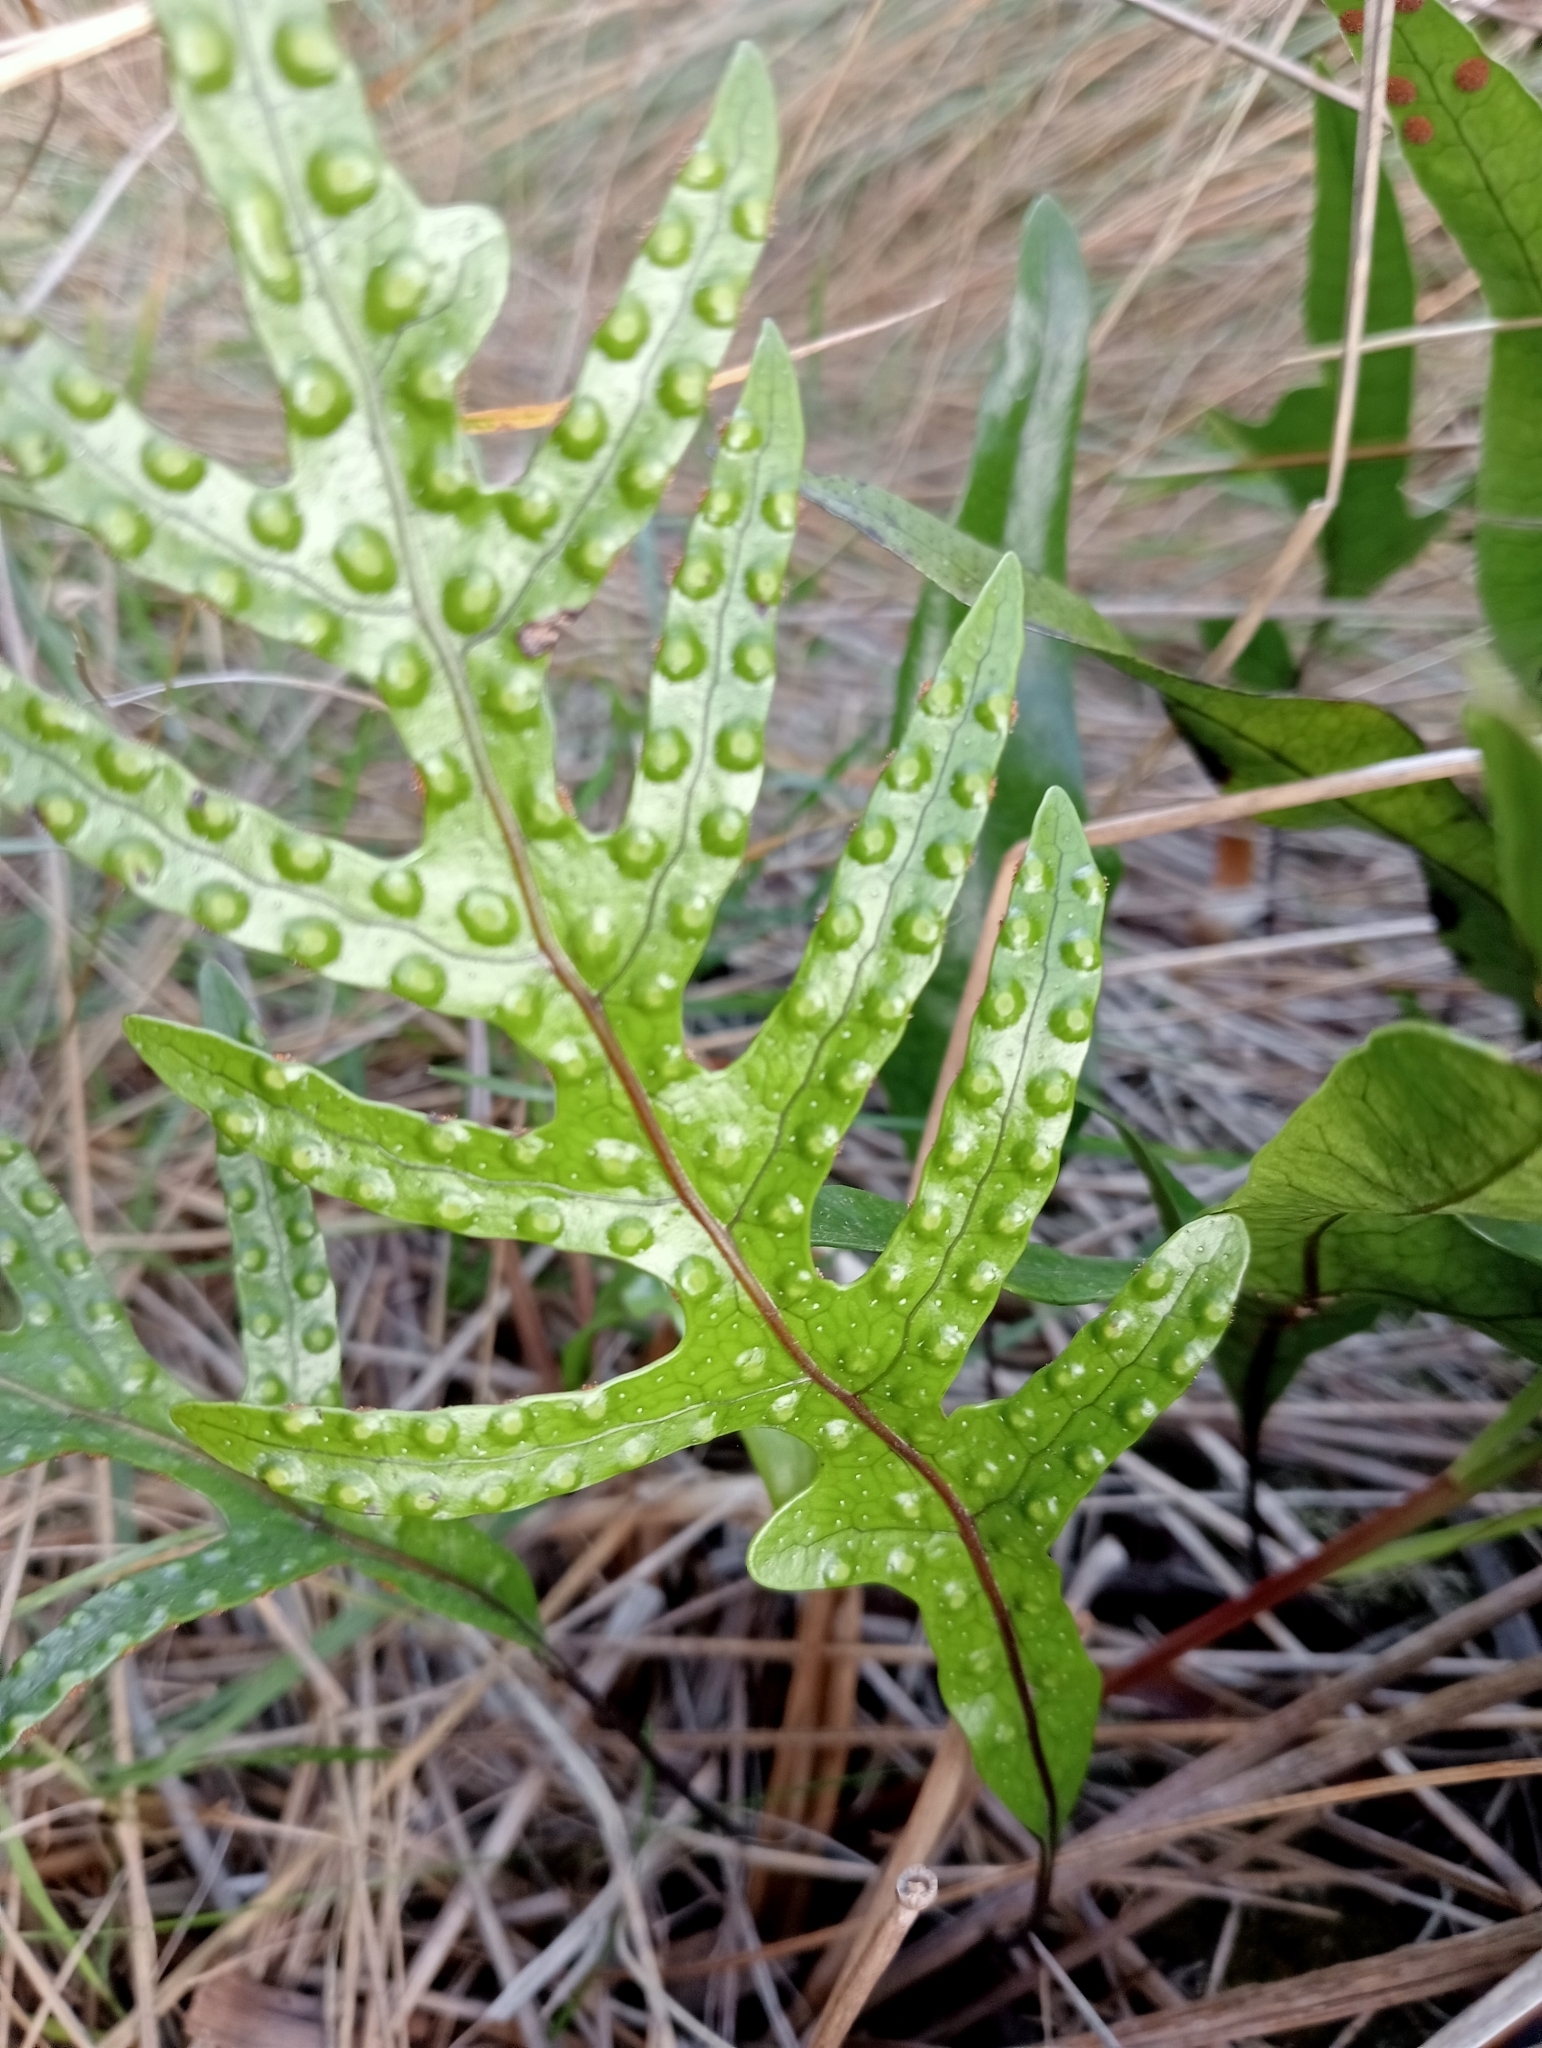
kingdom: Plantae
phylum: Tracheophyta
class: Polypodiopsida
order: Polypodiales
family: Polypodiaceae
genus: Lecanopteris
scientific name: Lecanopteris pustulata
